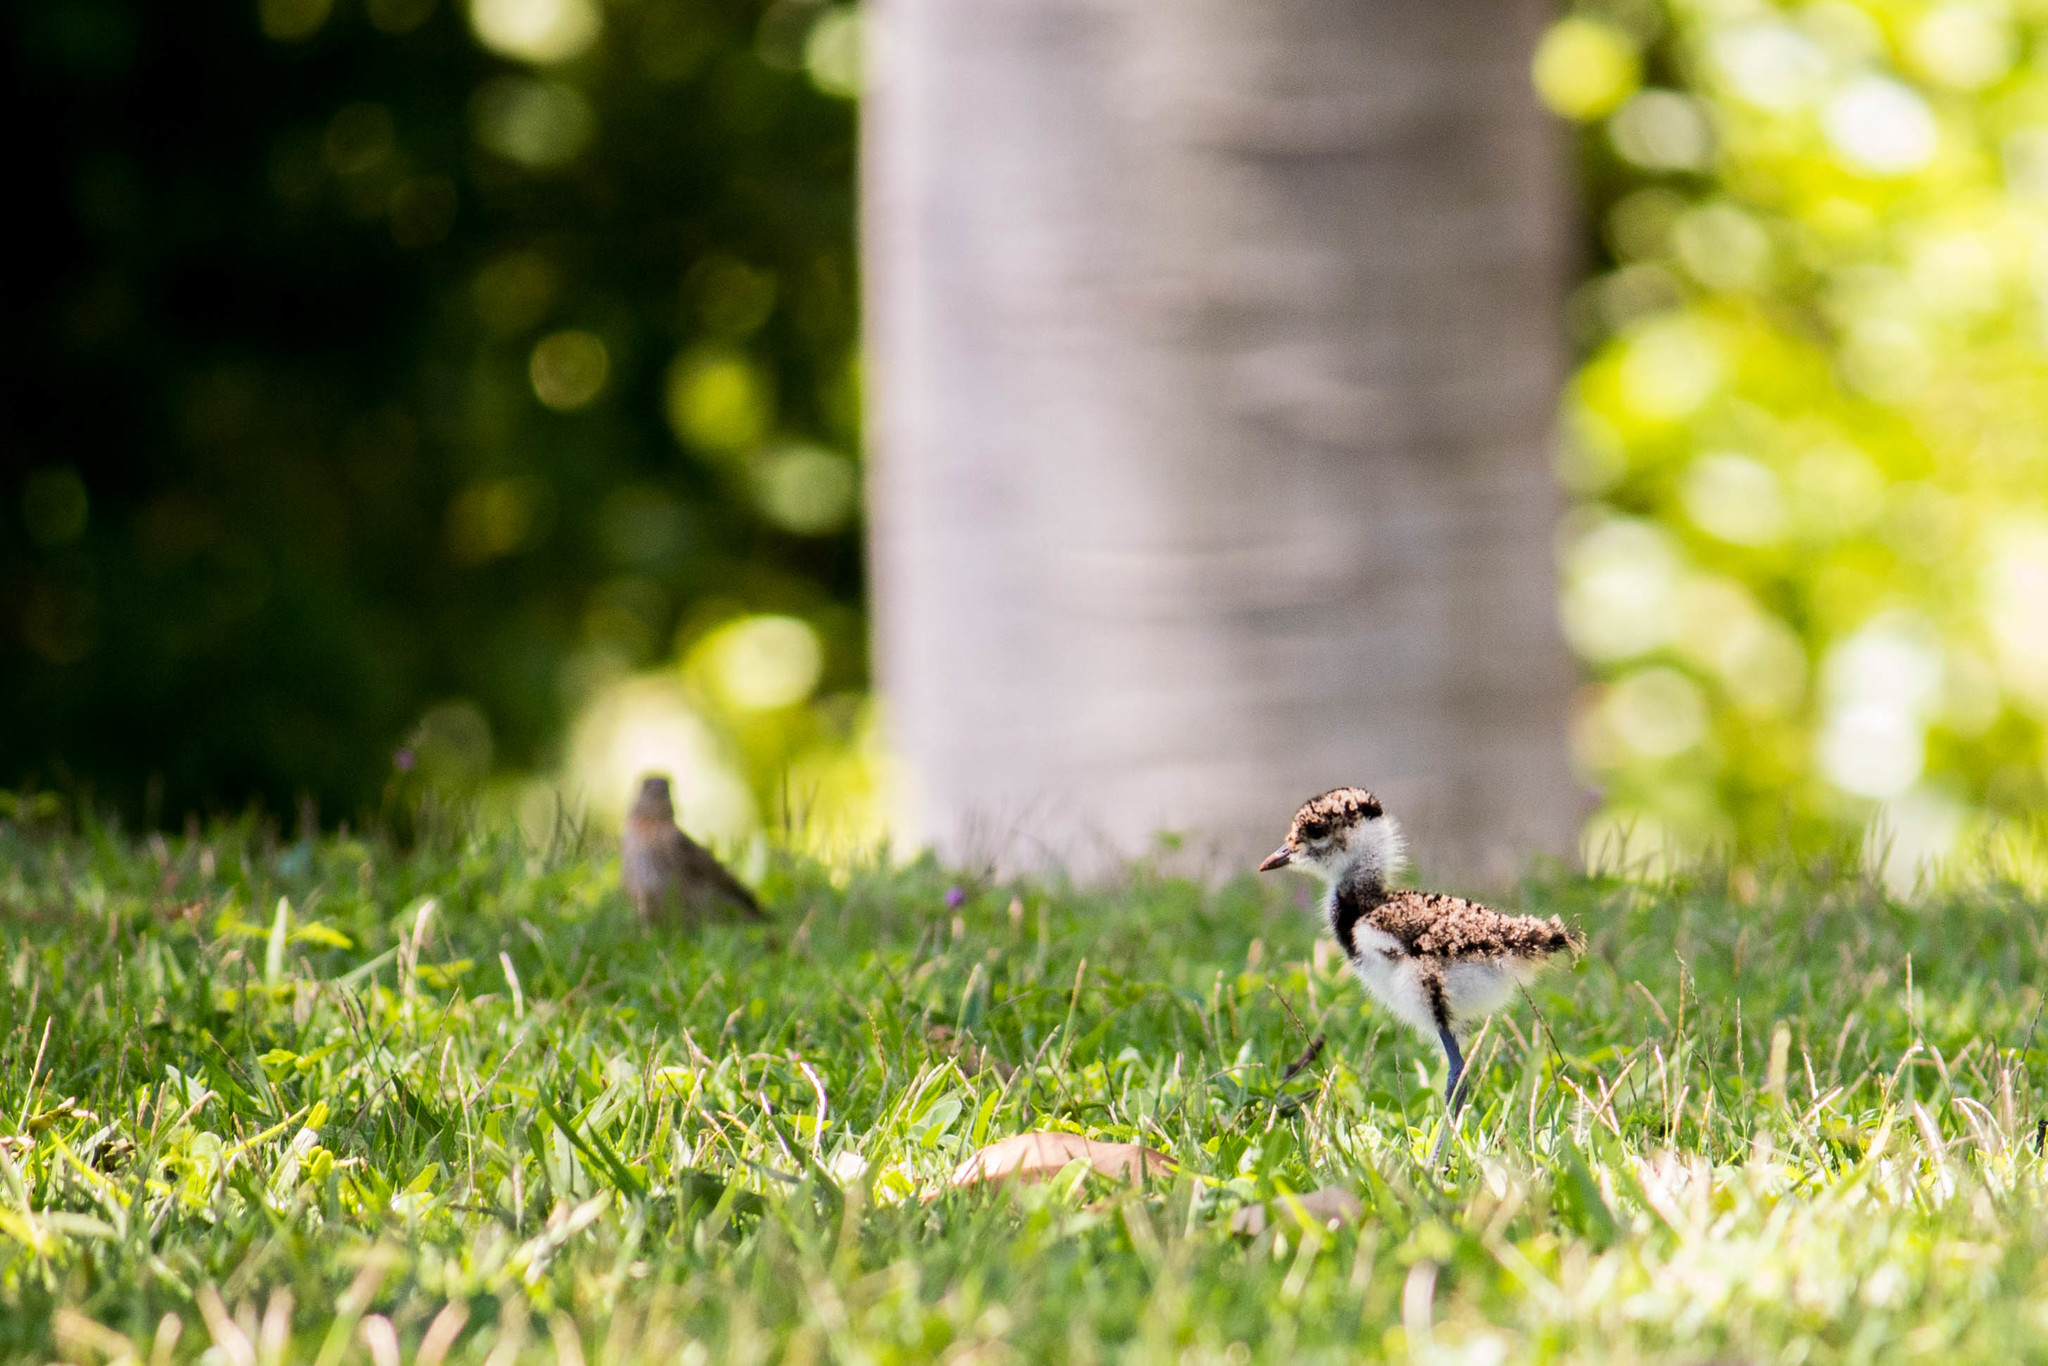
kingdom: Animalia
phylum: Chordata
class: Aves
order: Charadriiformes
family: Charadriidae
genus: Vanellus
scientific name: Vanellus chilensis
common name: Southern lapwing
